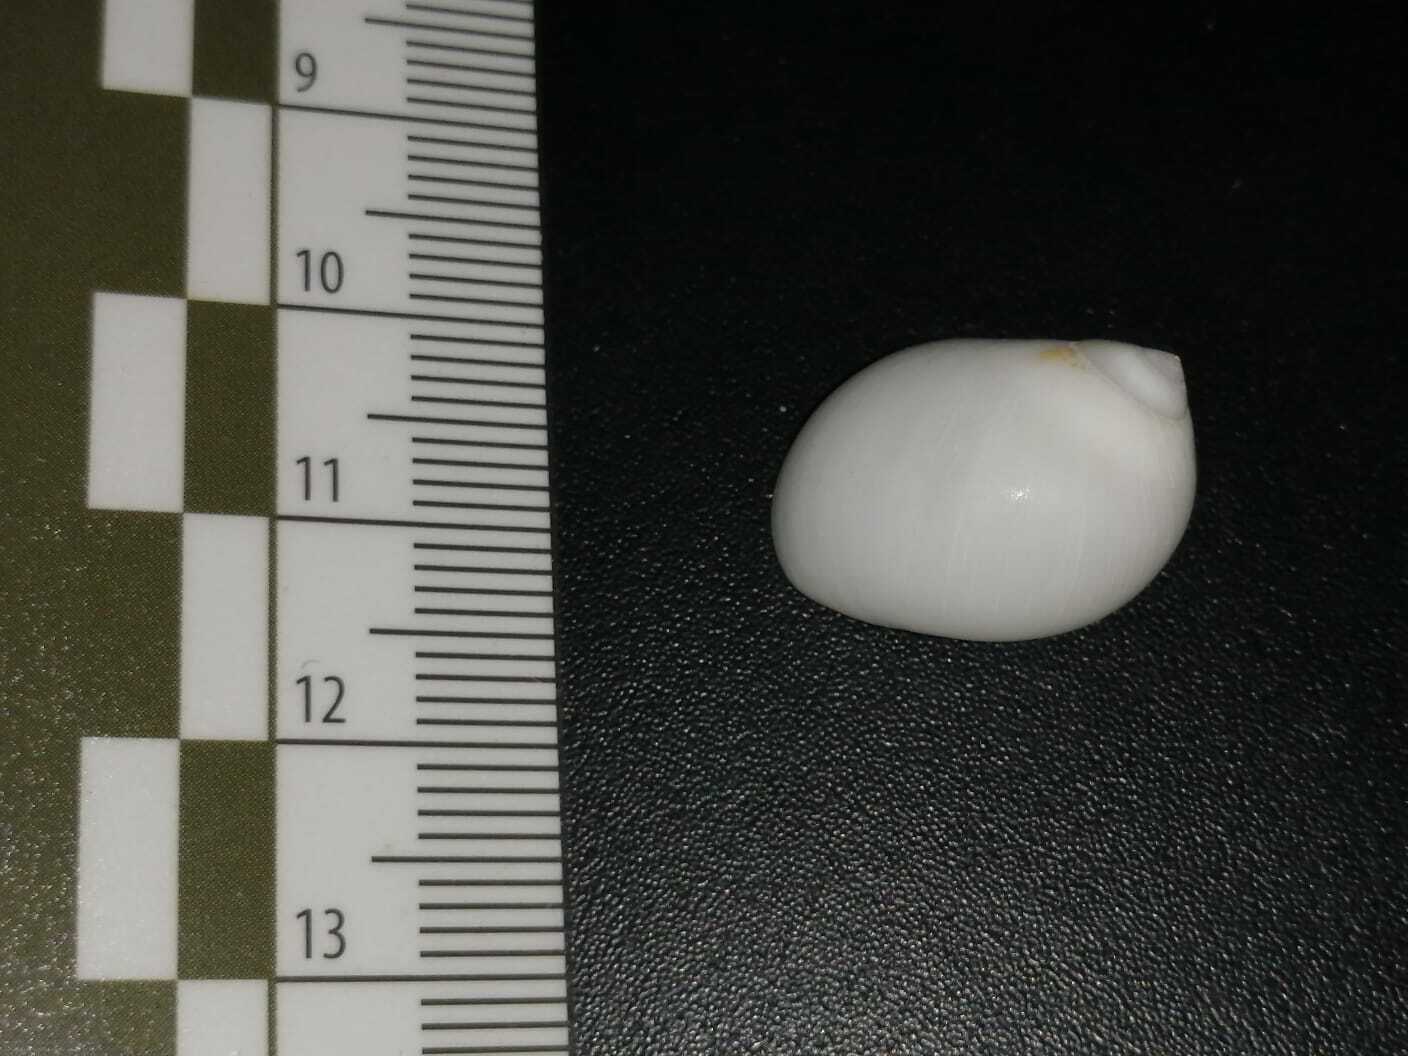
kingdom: Animalia
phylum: Mollusca
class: Gastropoda
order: Littorinimorpha
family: Naticidae
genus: Polinices
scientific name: Polinices lacteus
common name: Milk moonsnail
